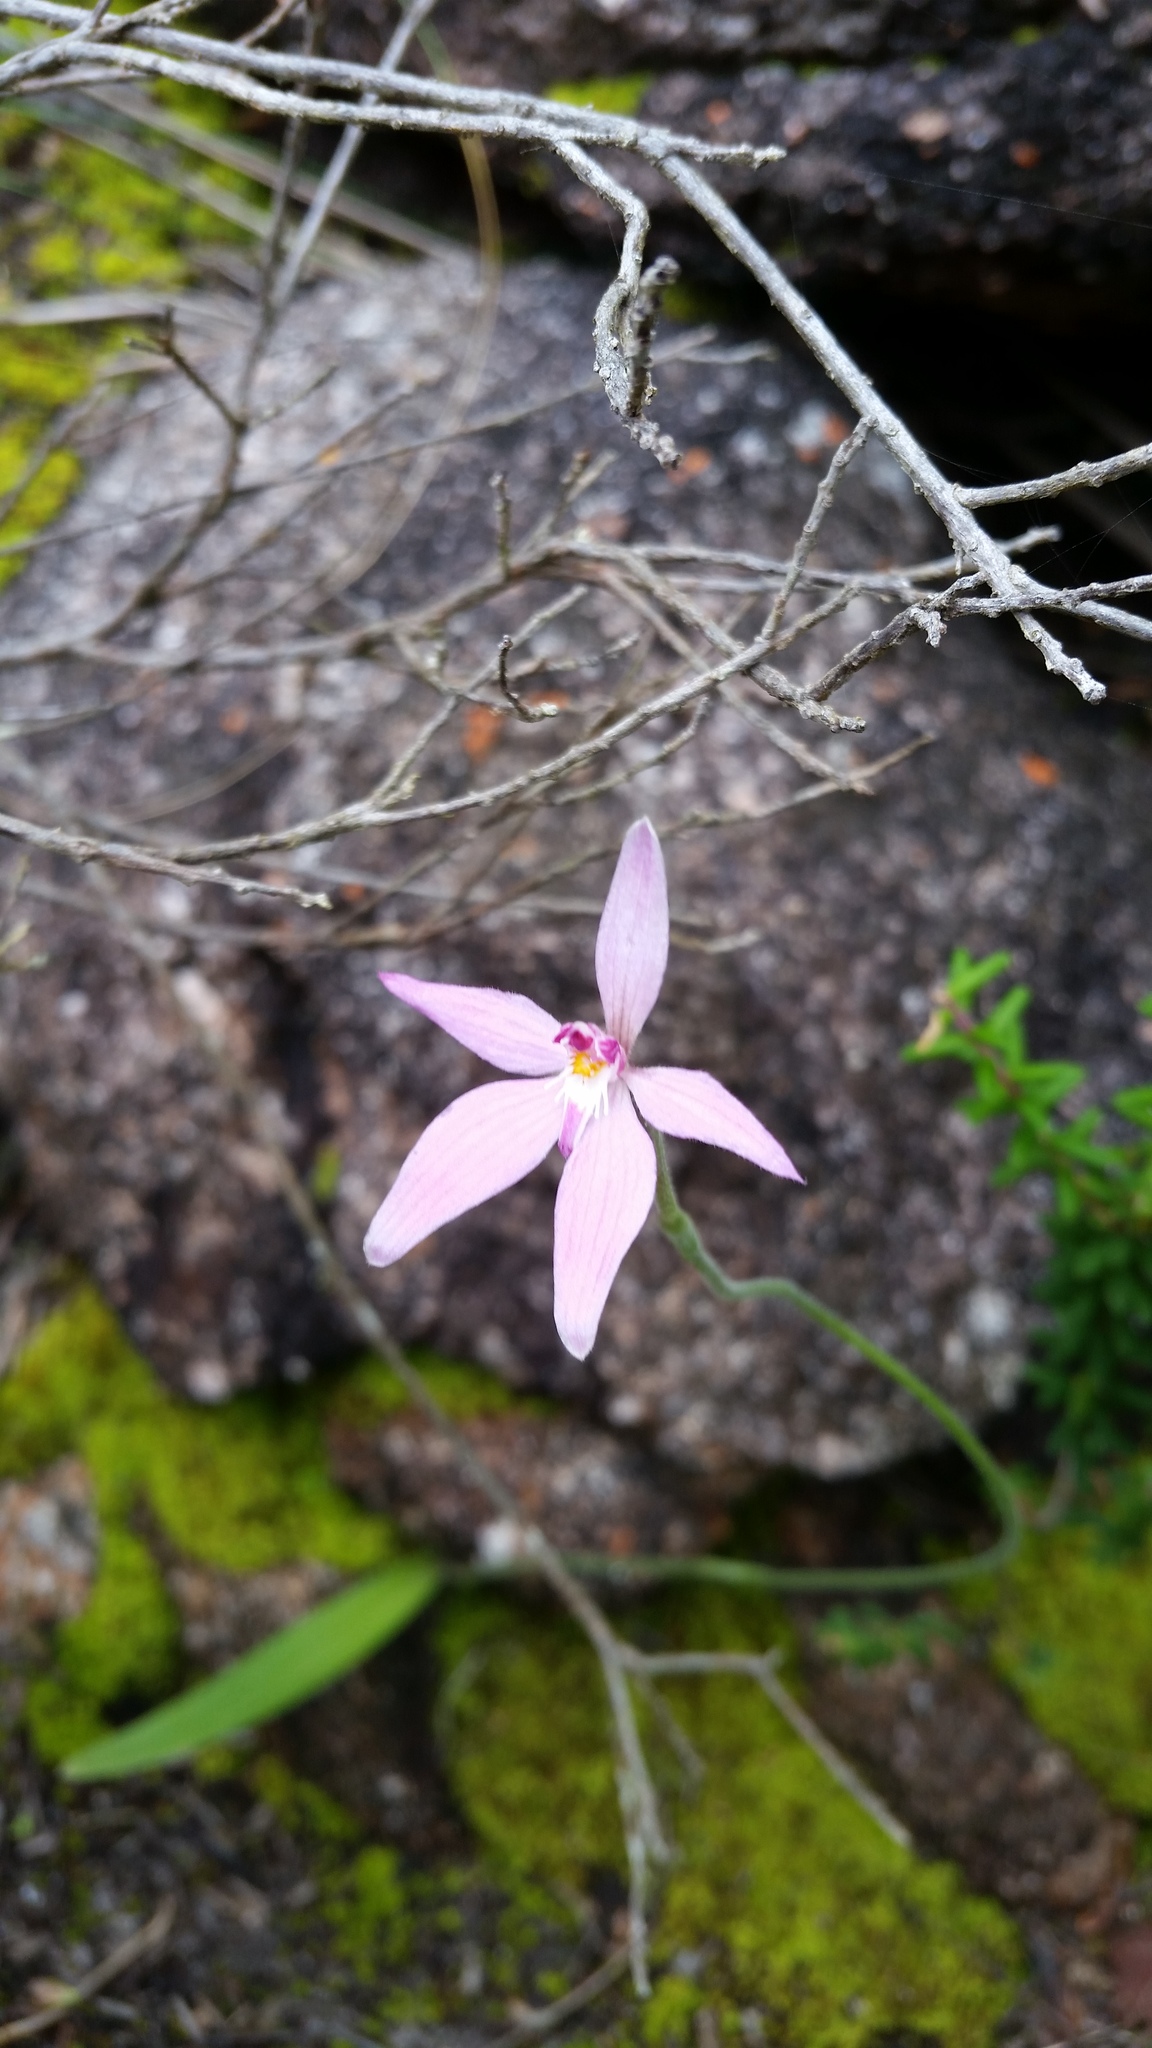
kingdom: Plantae
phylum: Tracheophyta
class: Liliopsida
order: Asparagales
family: Orchidaceae
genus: Caladenia
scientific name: Caladenia latifolia
